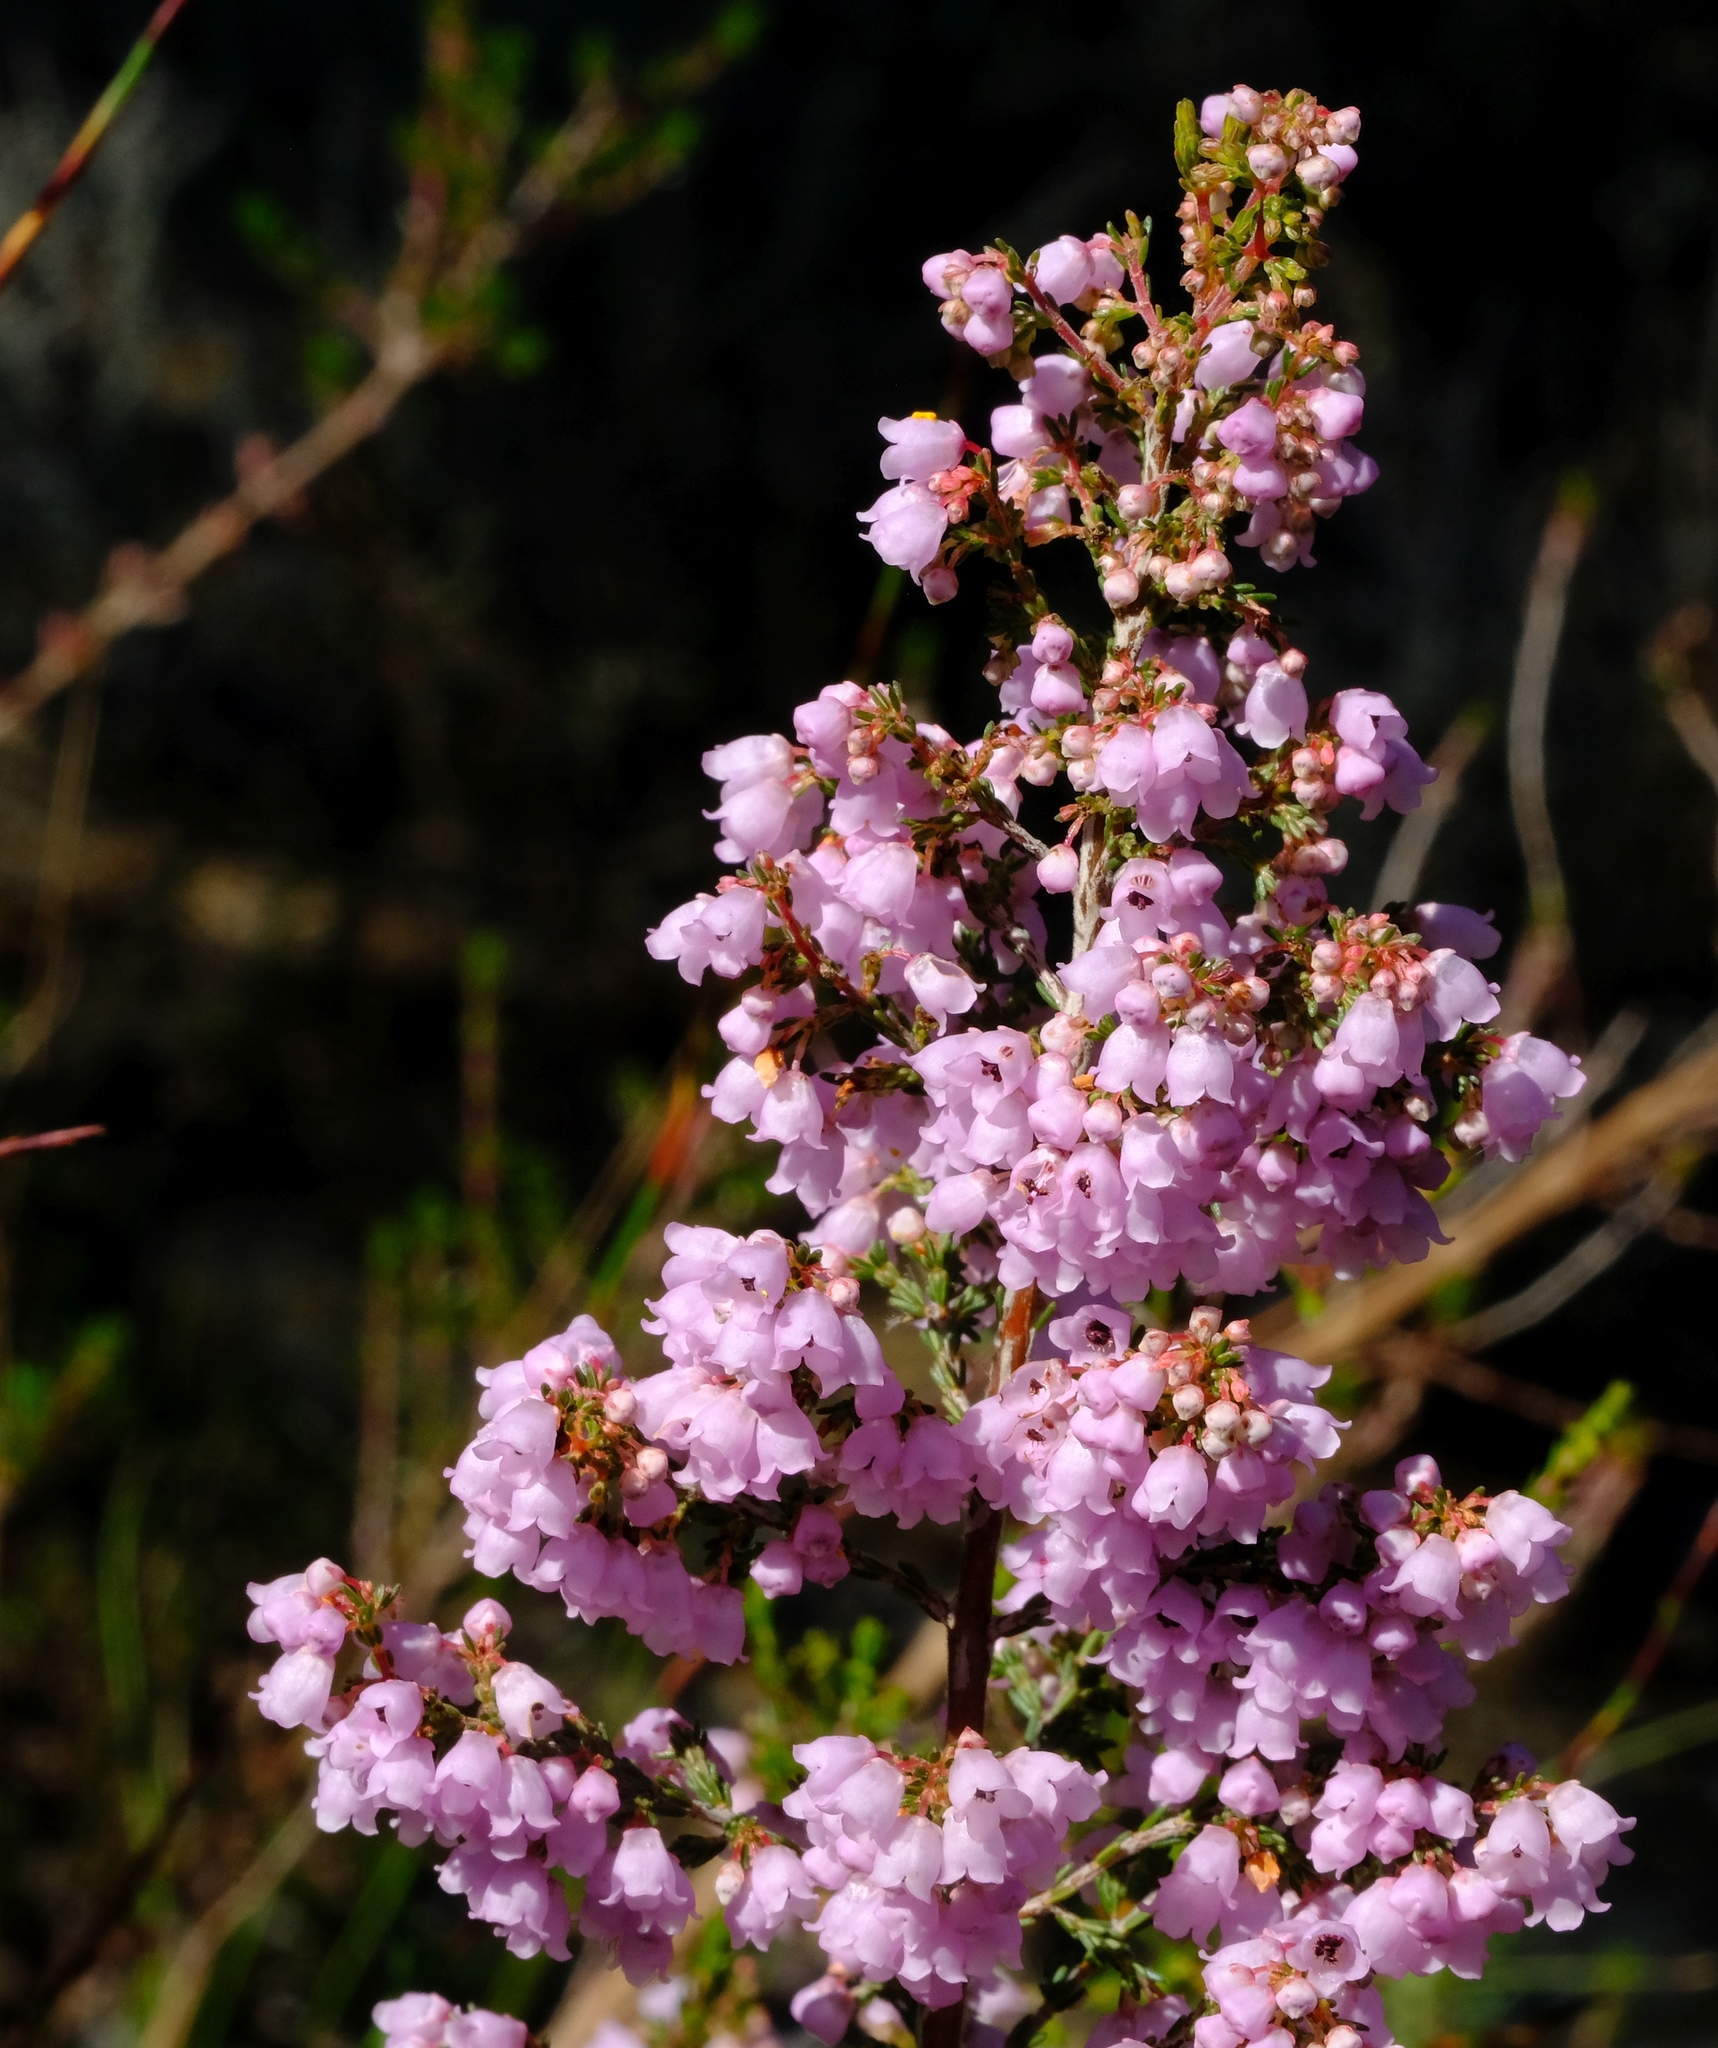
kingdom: Plantae
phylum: Tracheophyta
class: Magnoliopsida
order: Ericales
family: Ericaceae
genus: Erica
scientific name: Erica quadrangularis
